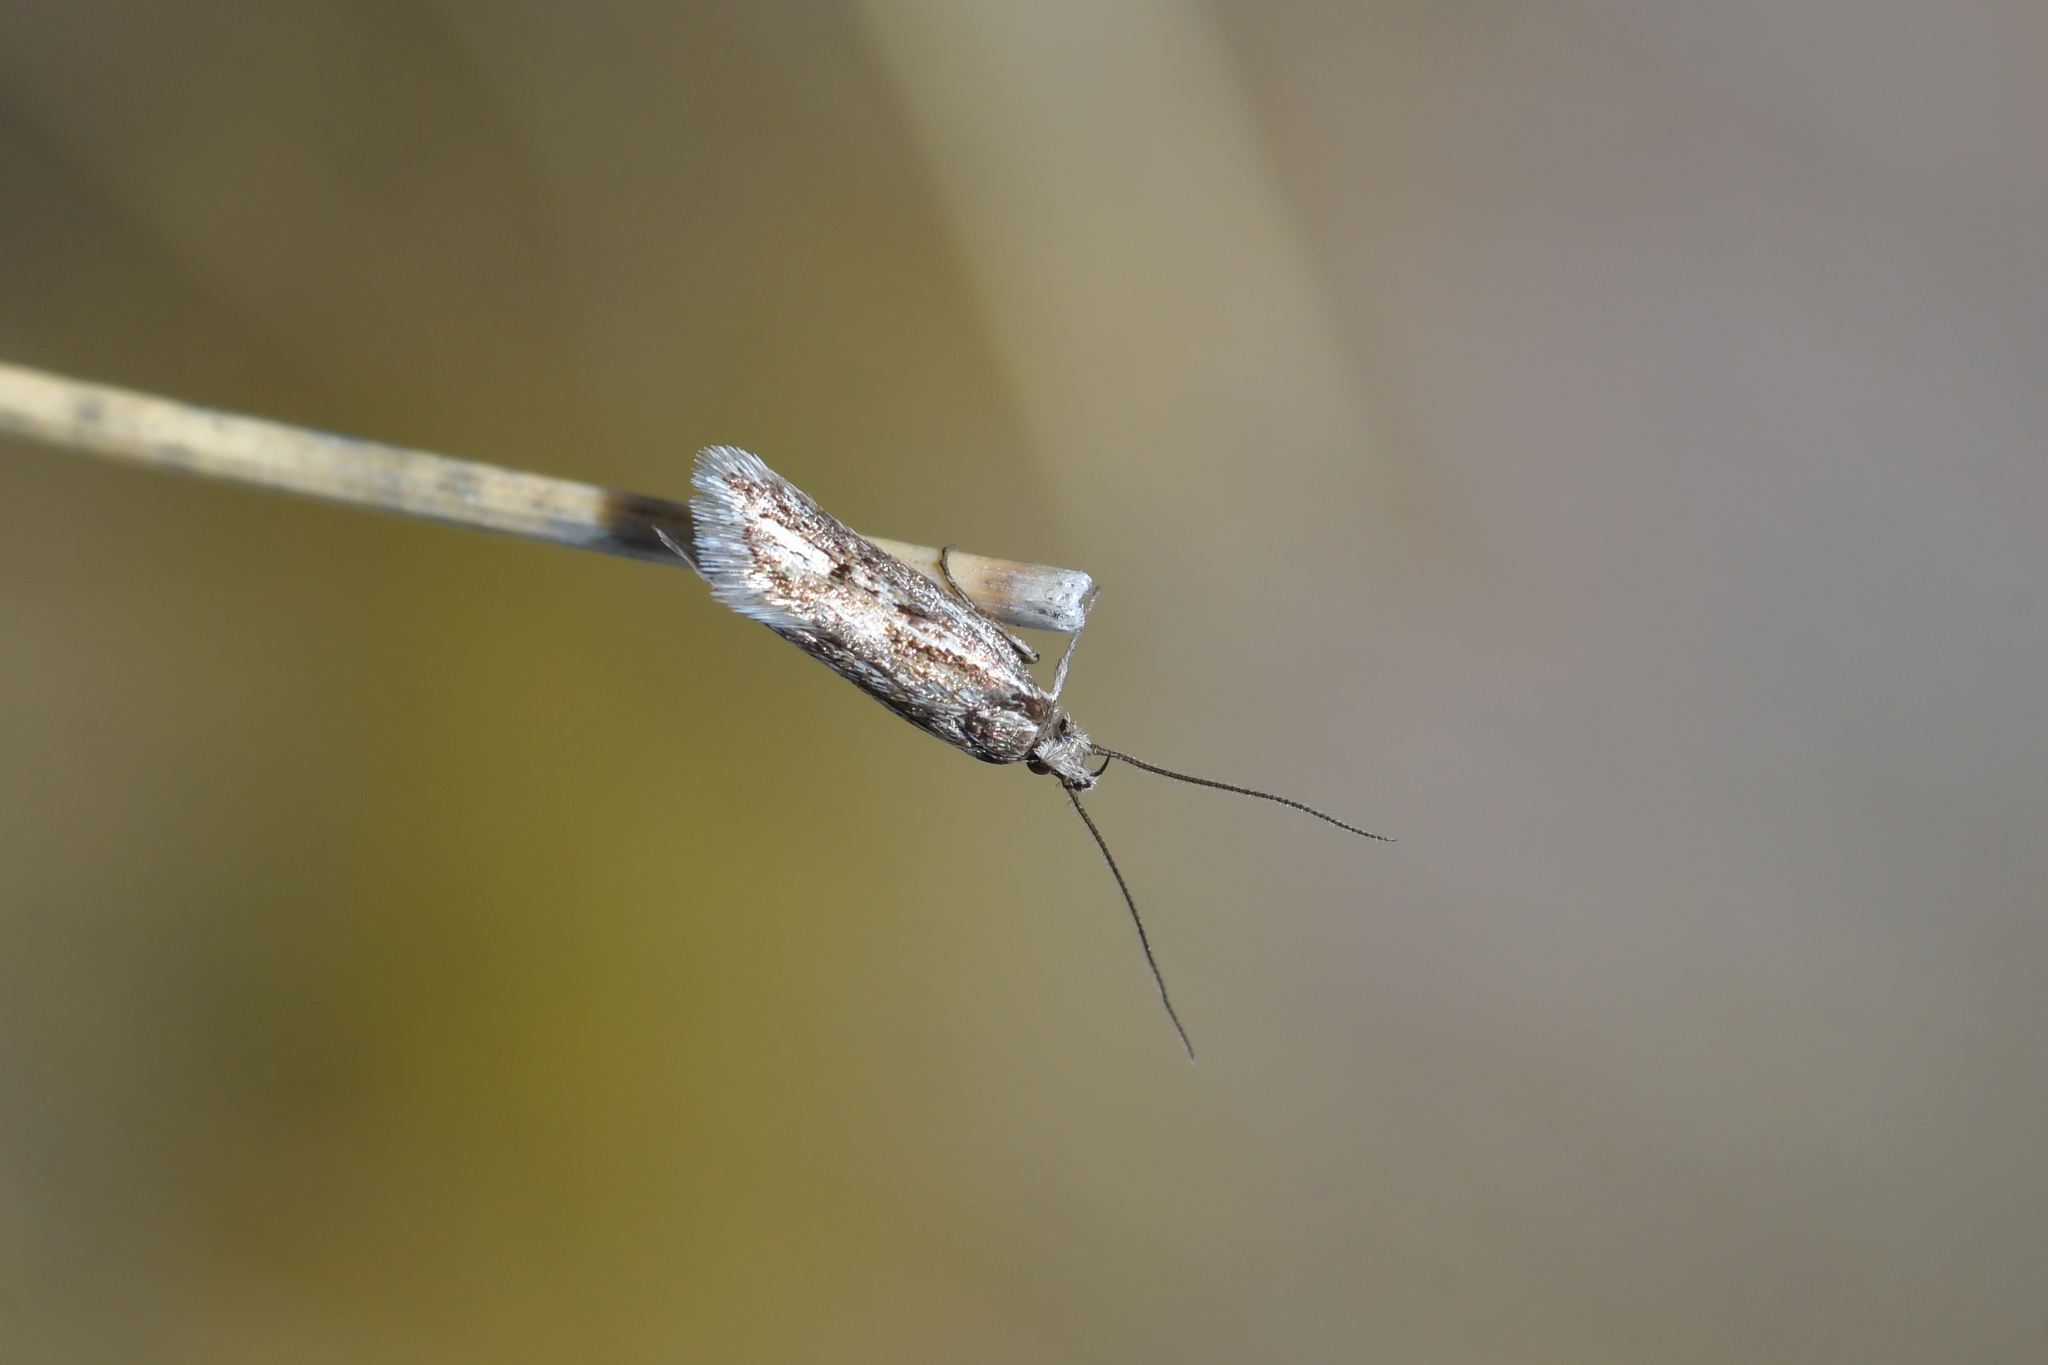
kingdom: Animalia
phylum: Arthropoda
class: Insecta
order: Lepidoptera
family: Oecophoridae
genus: Prepalla
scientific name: Prepalla
